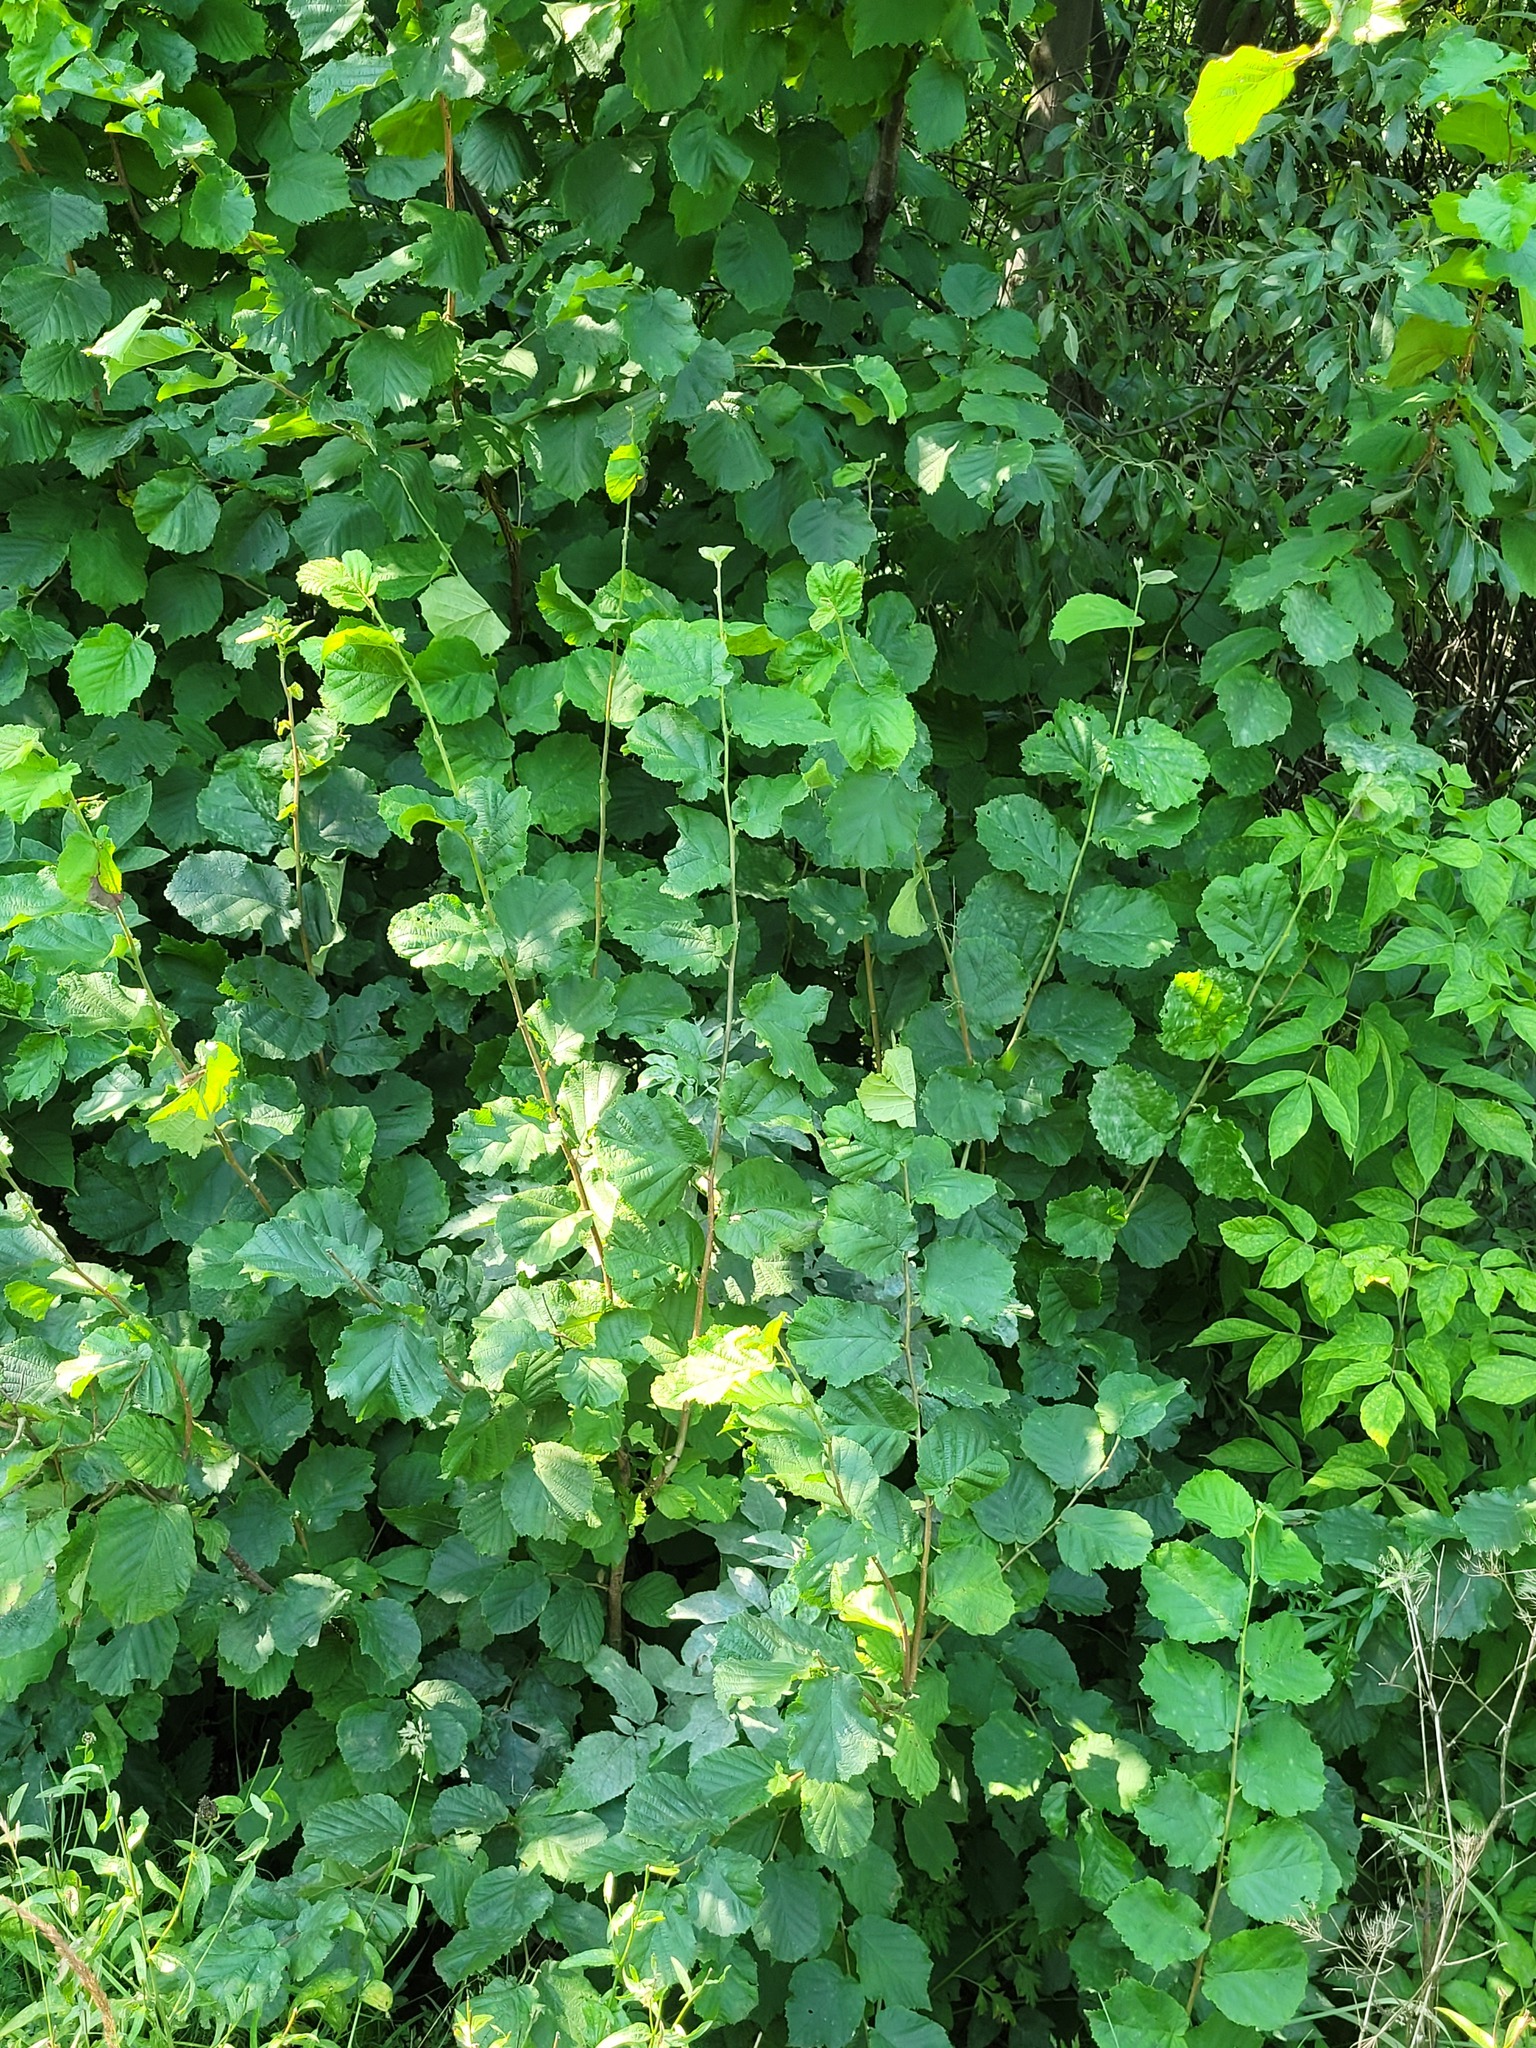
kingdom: Plantae
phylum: Tracheophyta
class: Magnoliopsida
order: Fagales
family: Betulaceae
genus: Corylus
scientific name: Corylus avellana
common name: European hazel
